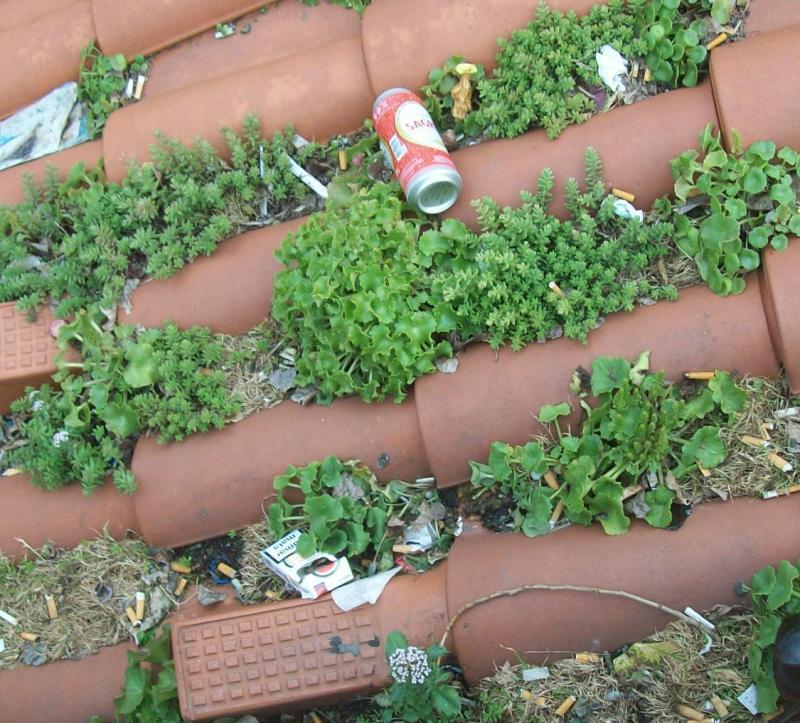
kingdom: Plantae
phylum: Tracheophyta
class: Magnoliopsida
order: Saxifragales
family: Crassulaceae
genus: Sedum
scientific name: Sedum album
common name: White stonecrop
